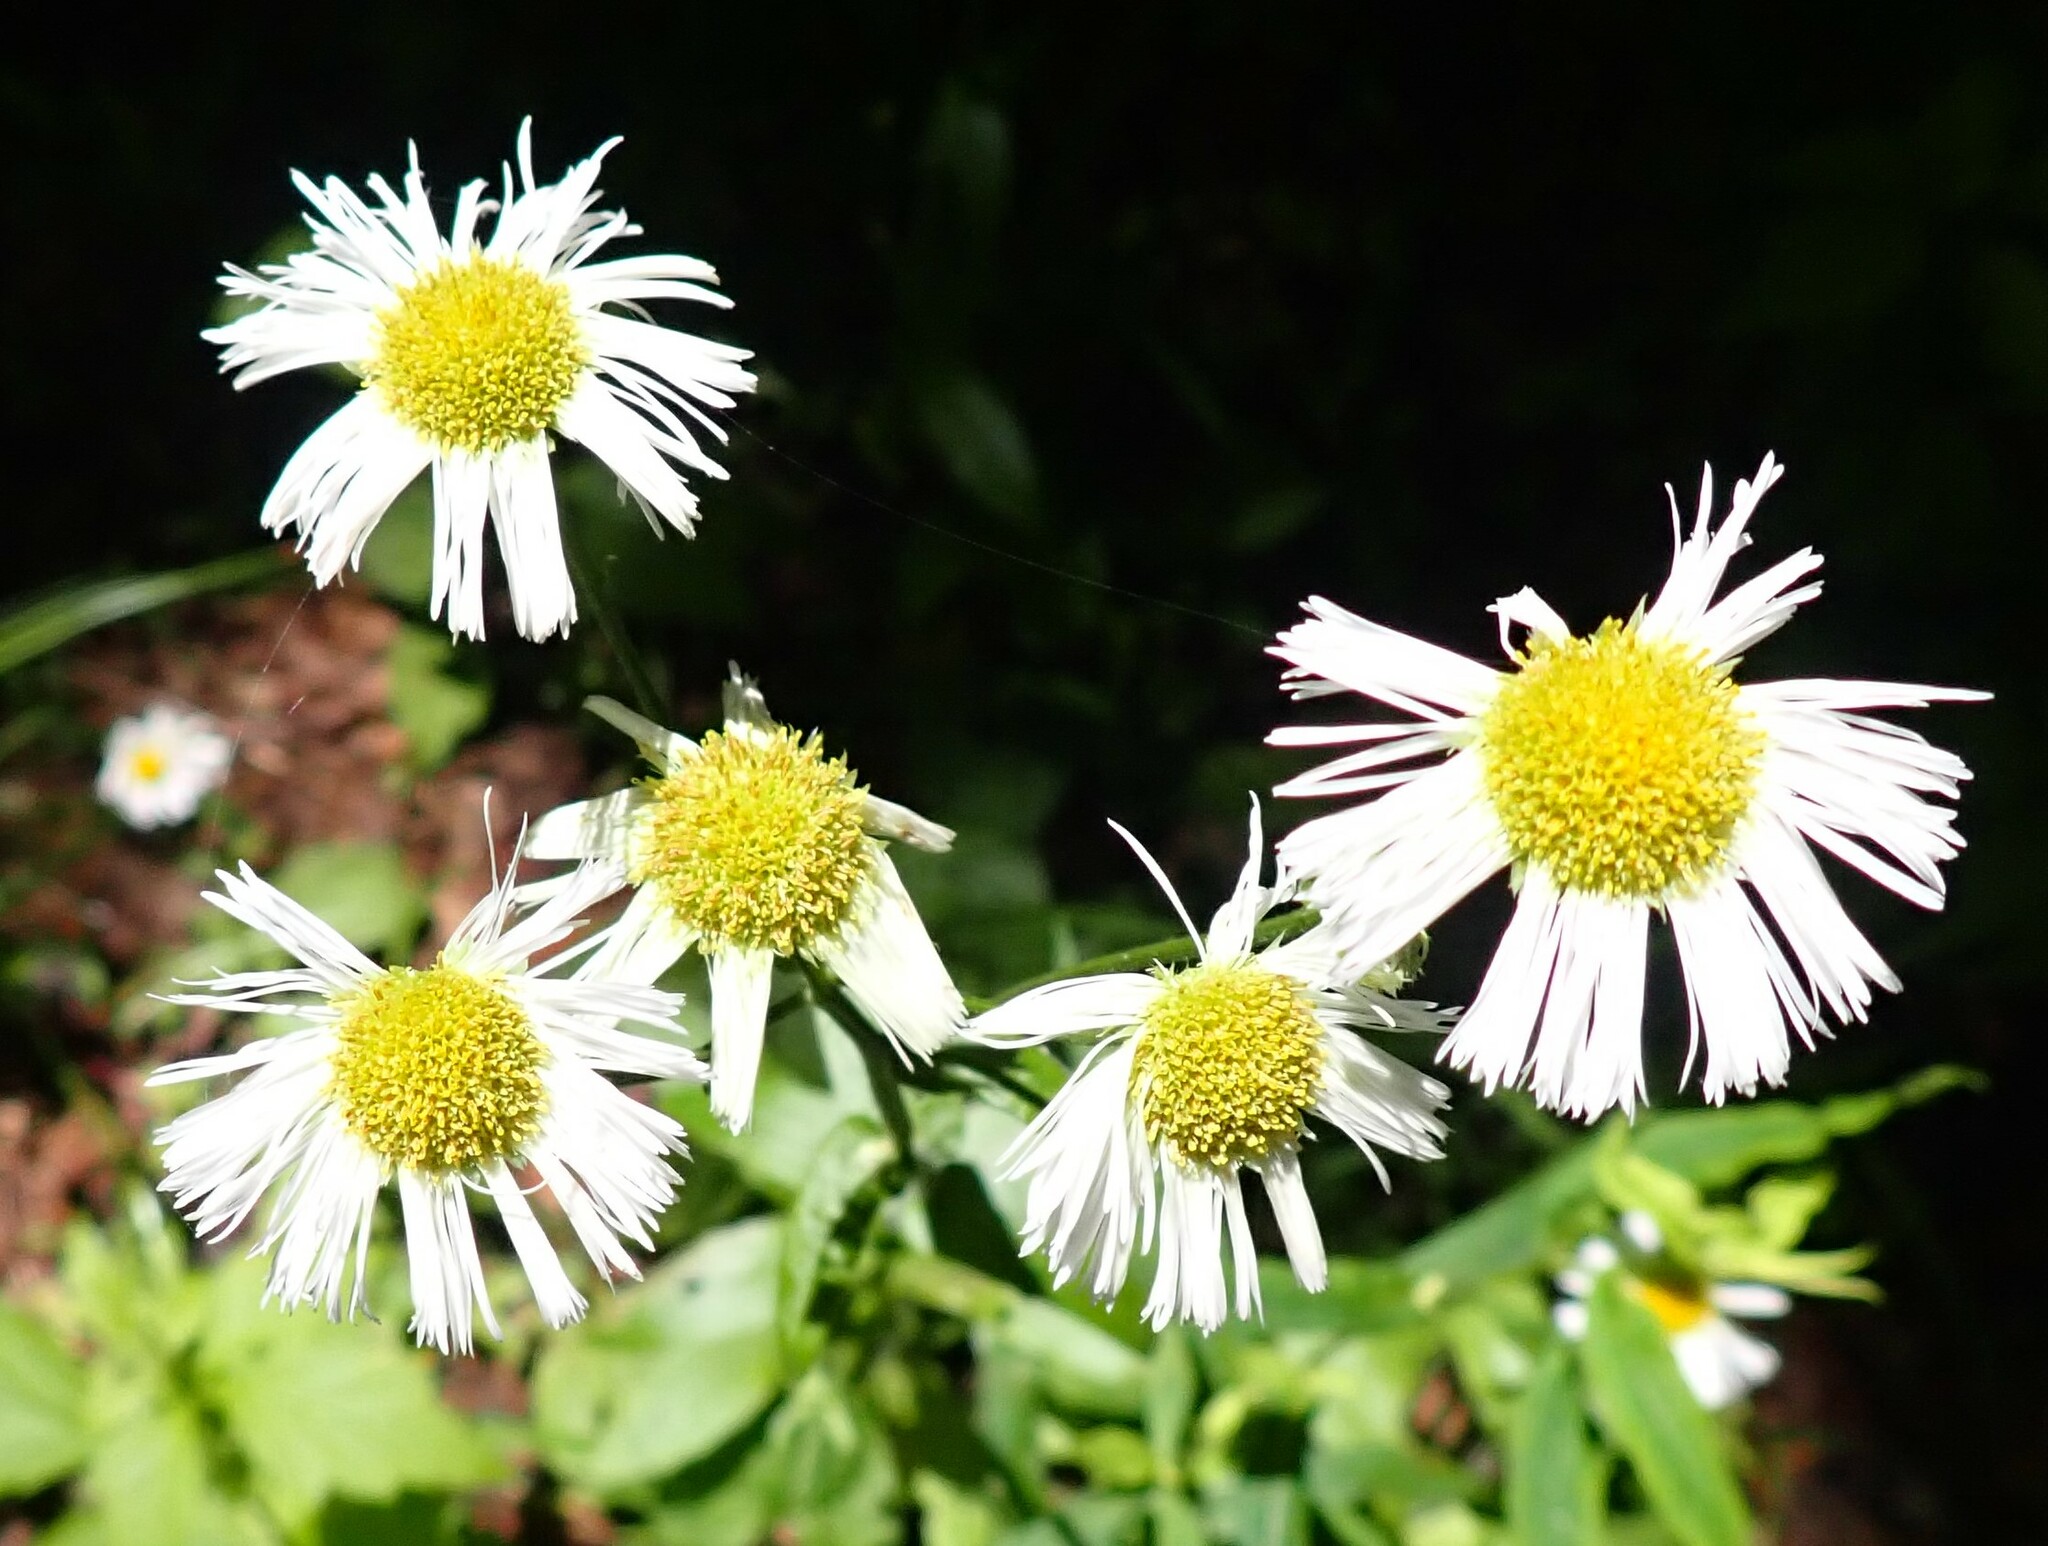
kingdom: Plantae
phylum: Tracheophyta
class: Magnoliopsida
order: Asterales
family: Asteraceae
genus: Erigeron
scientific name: Erigeron philadelphicus
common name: Robin's-plantain
